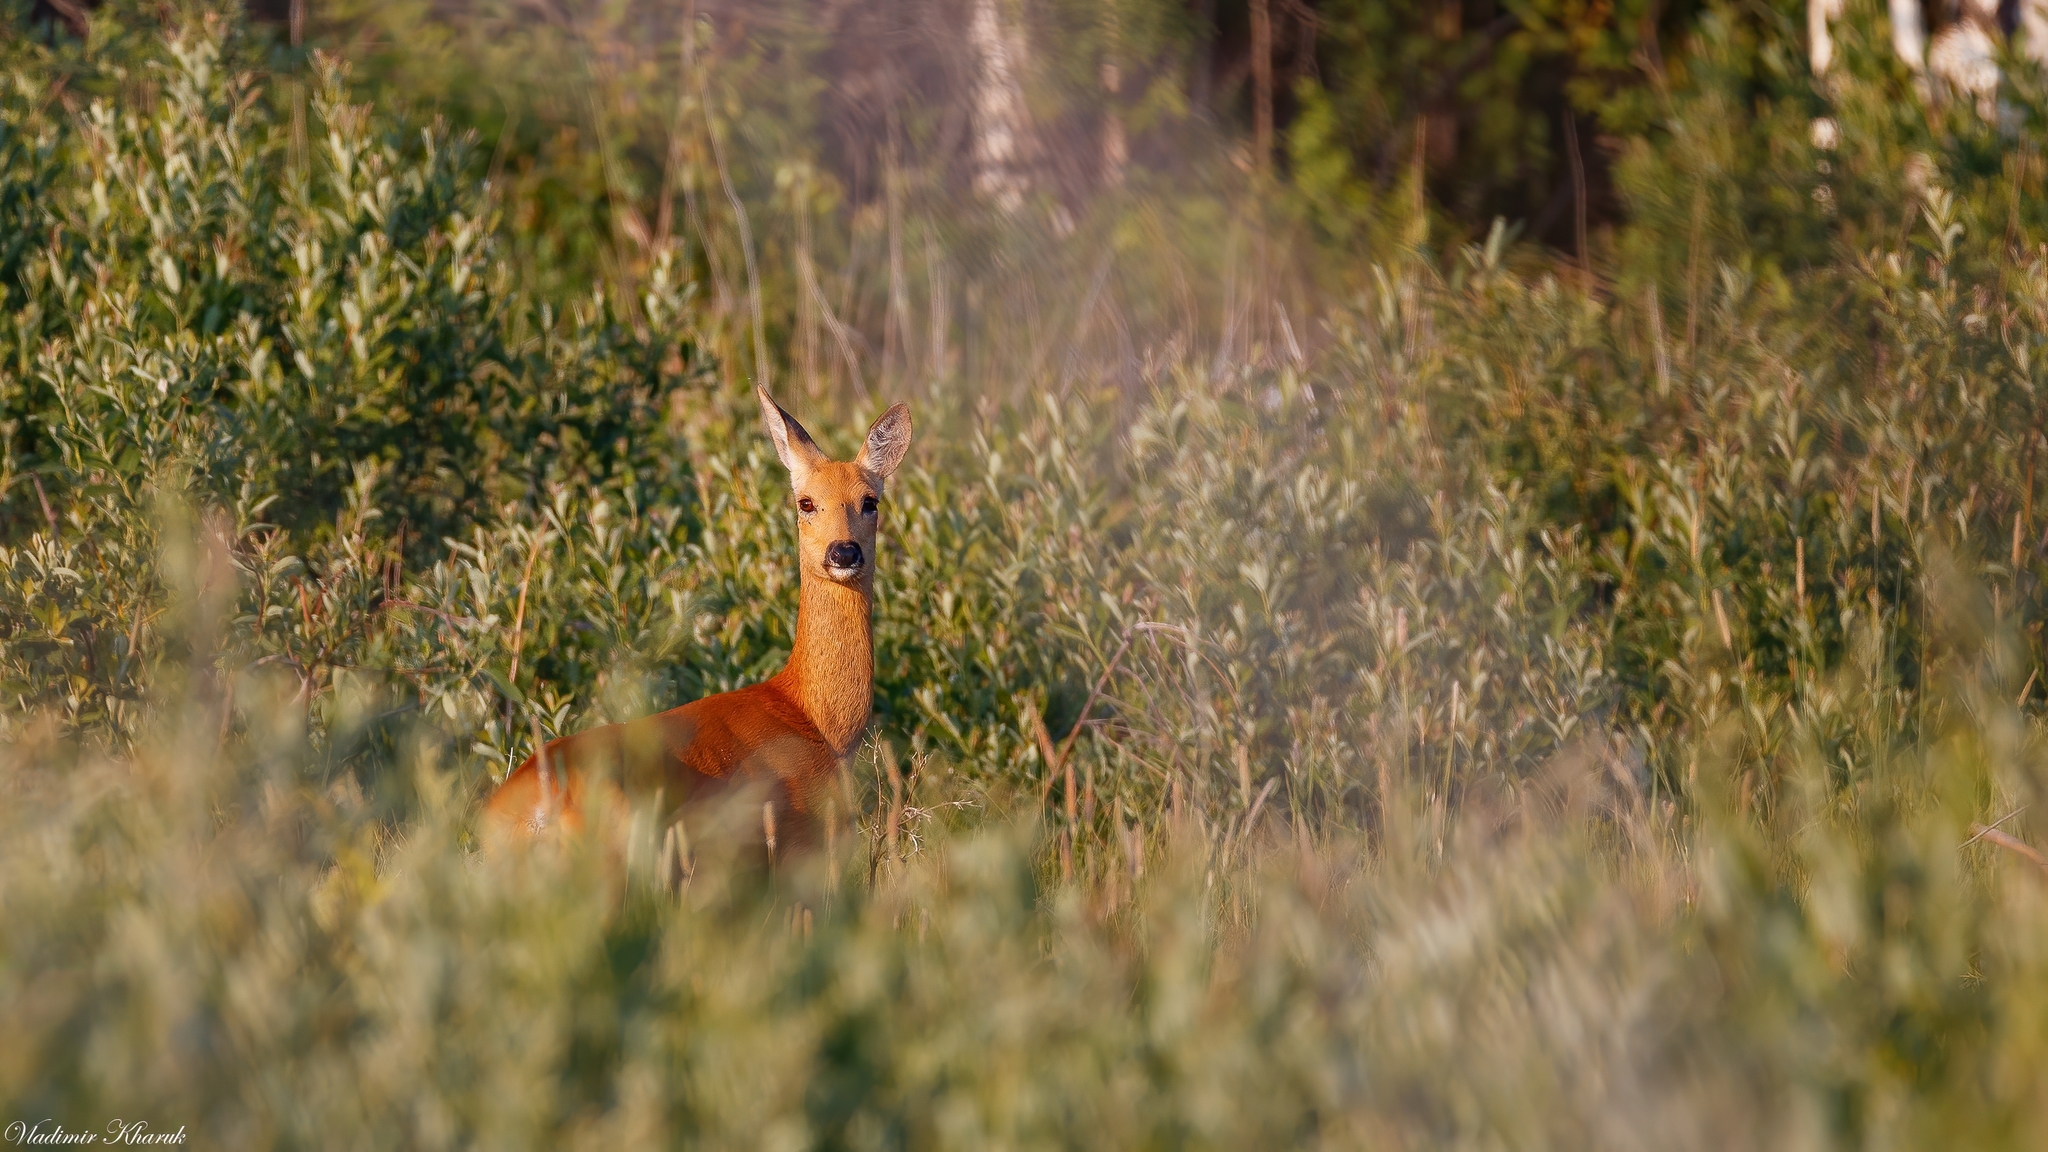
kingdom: Animalia
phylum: Chordata
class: Mammalia
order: Artiodactyla
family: Cervidae
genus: Capreolus
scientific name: Capreolus pygargus
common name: Siberian roe
